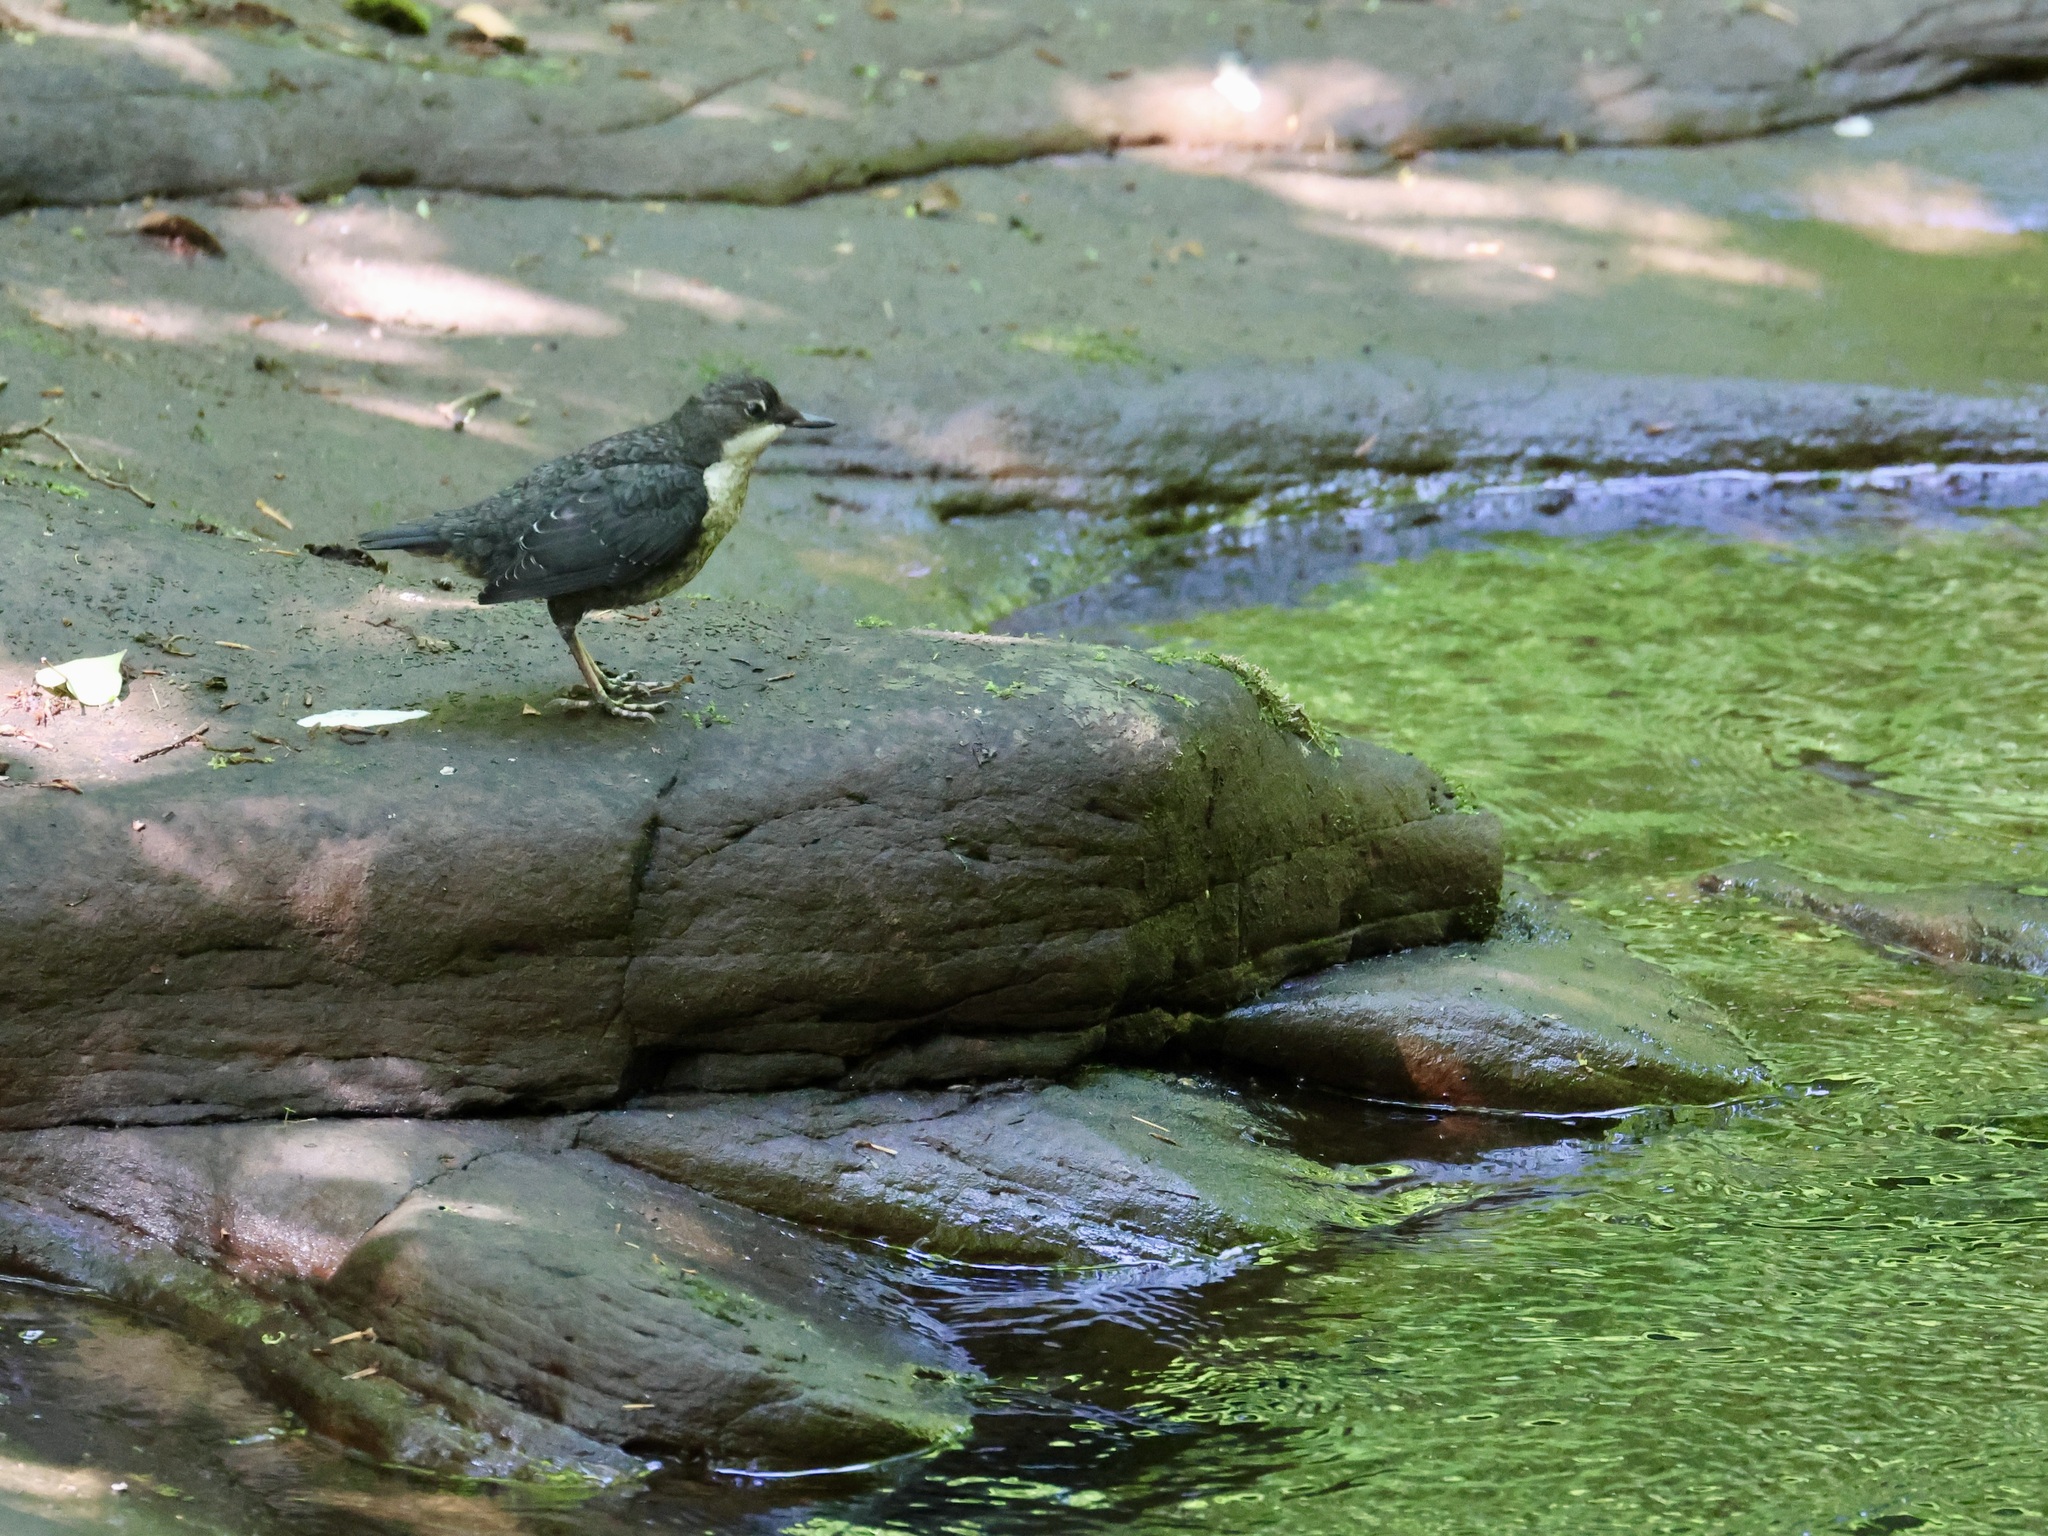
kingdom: Animalia
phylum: Chordata
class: Aves
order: Passeriformes
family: Cinclidae
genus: Cinclus
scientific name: Cinclus cinclus
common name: White-throated dipper
